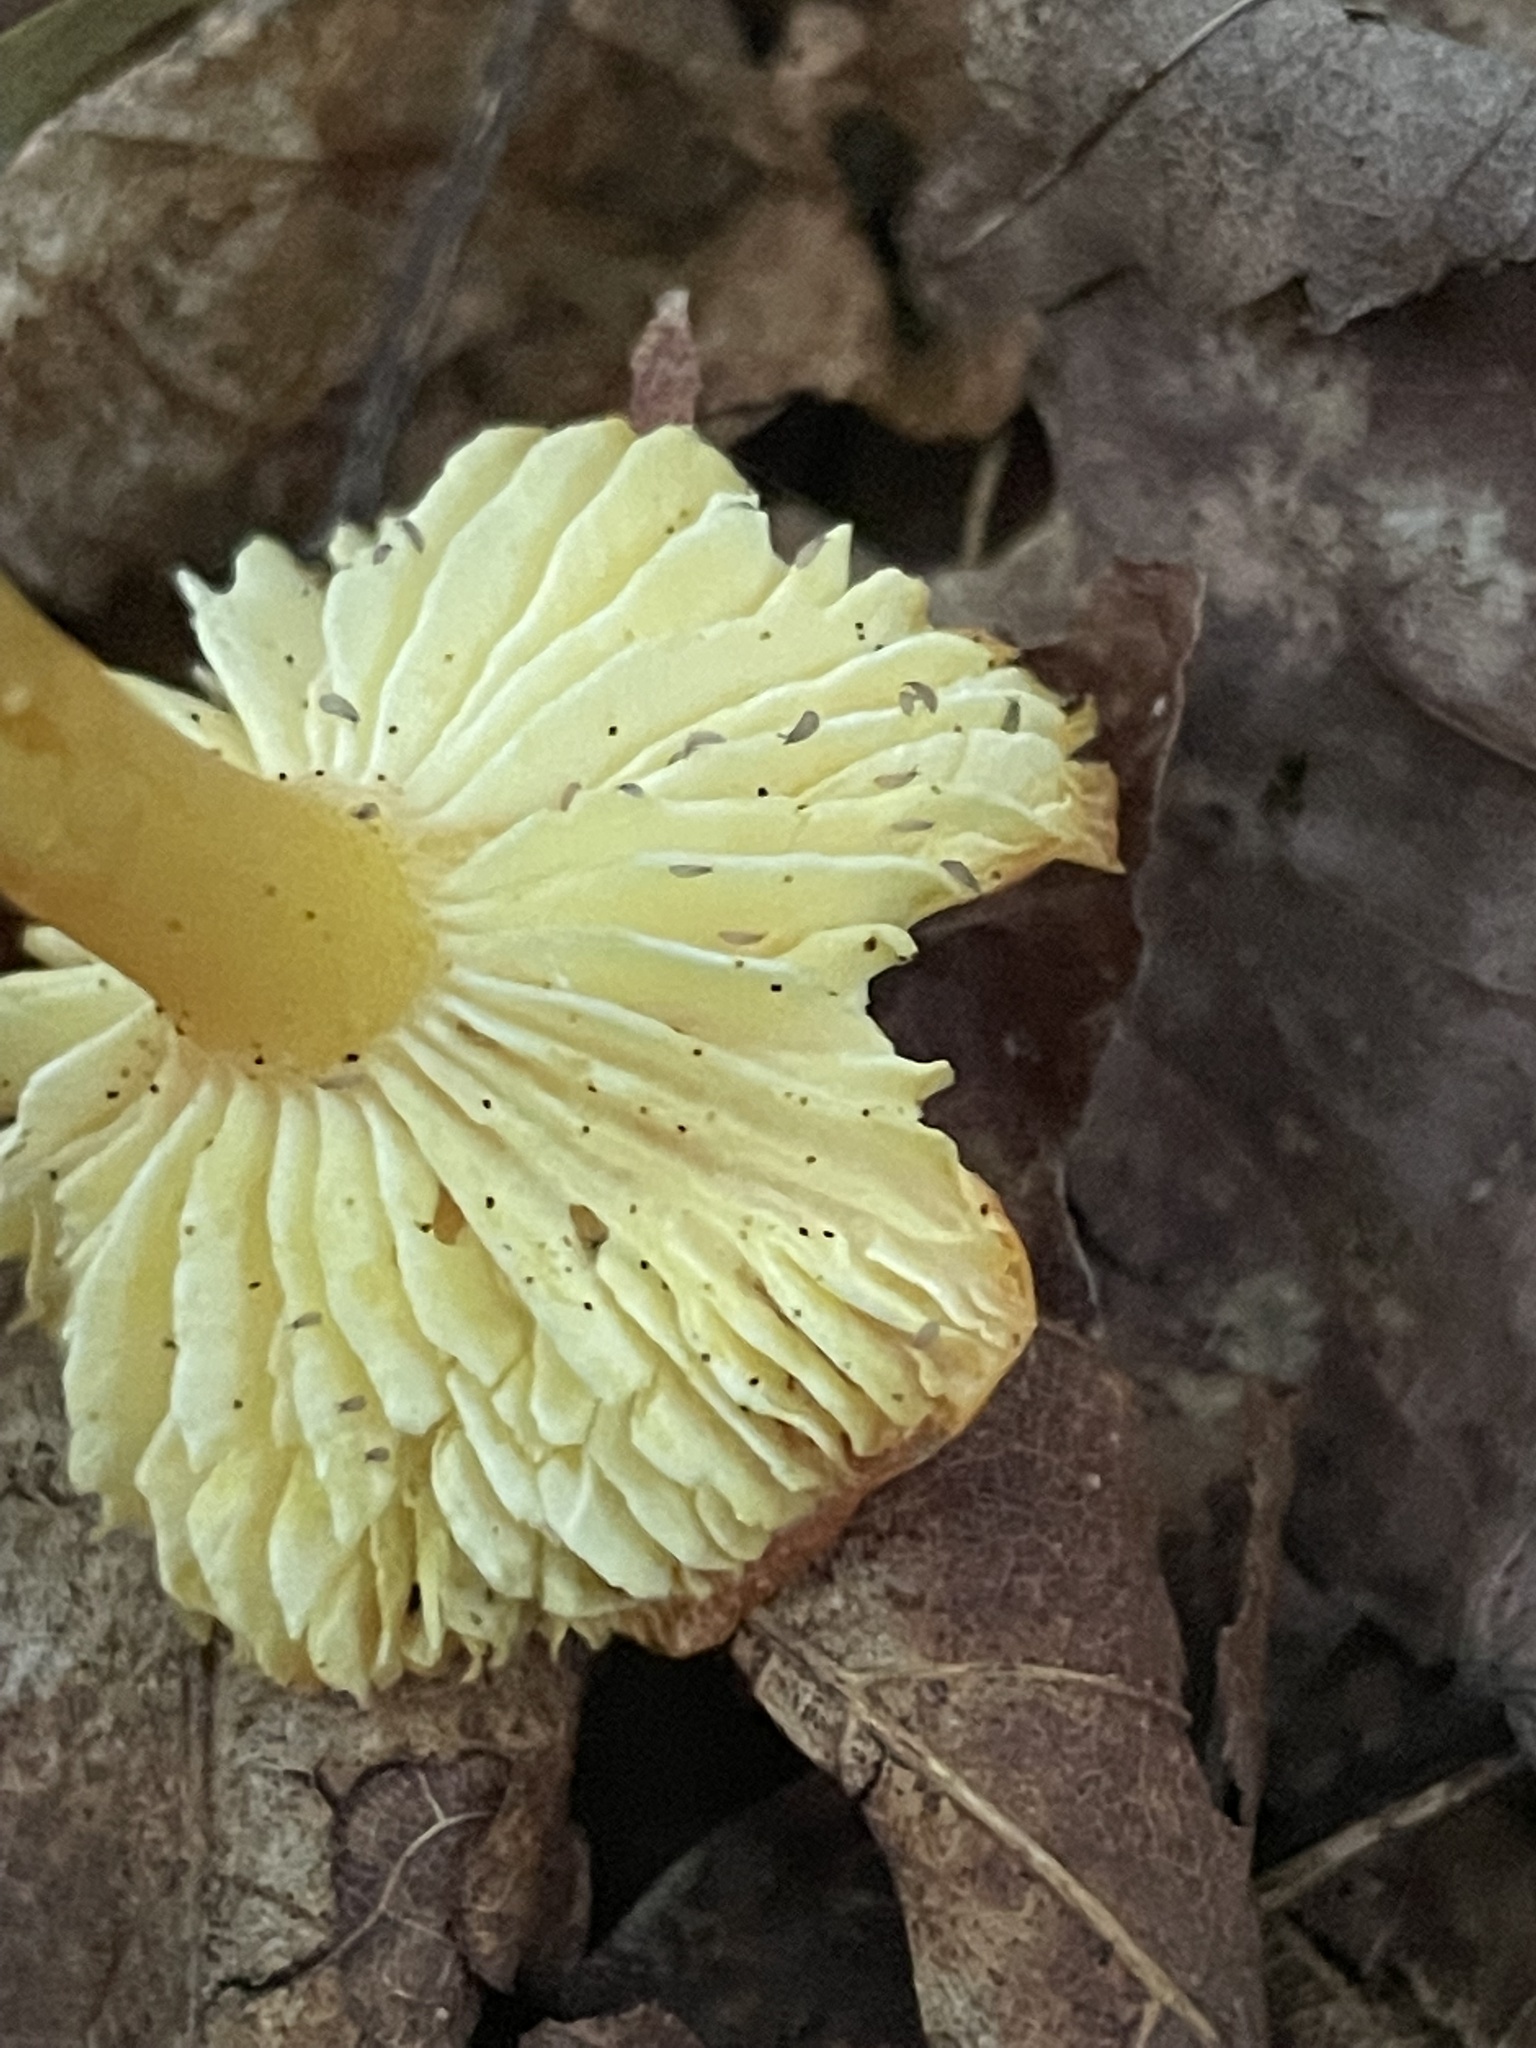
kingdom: Fungi
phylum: Basidiomycota
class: Agaricomycetes
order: Agaricales
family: Hygrophoraceae
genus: Hygrocybe
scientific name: Hygrocybe cantharellus
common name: Goblet waxcap
